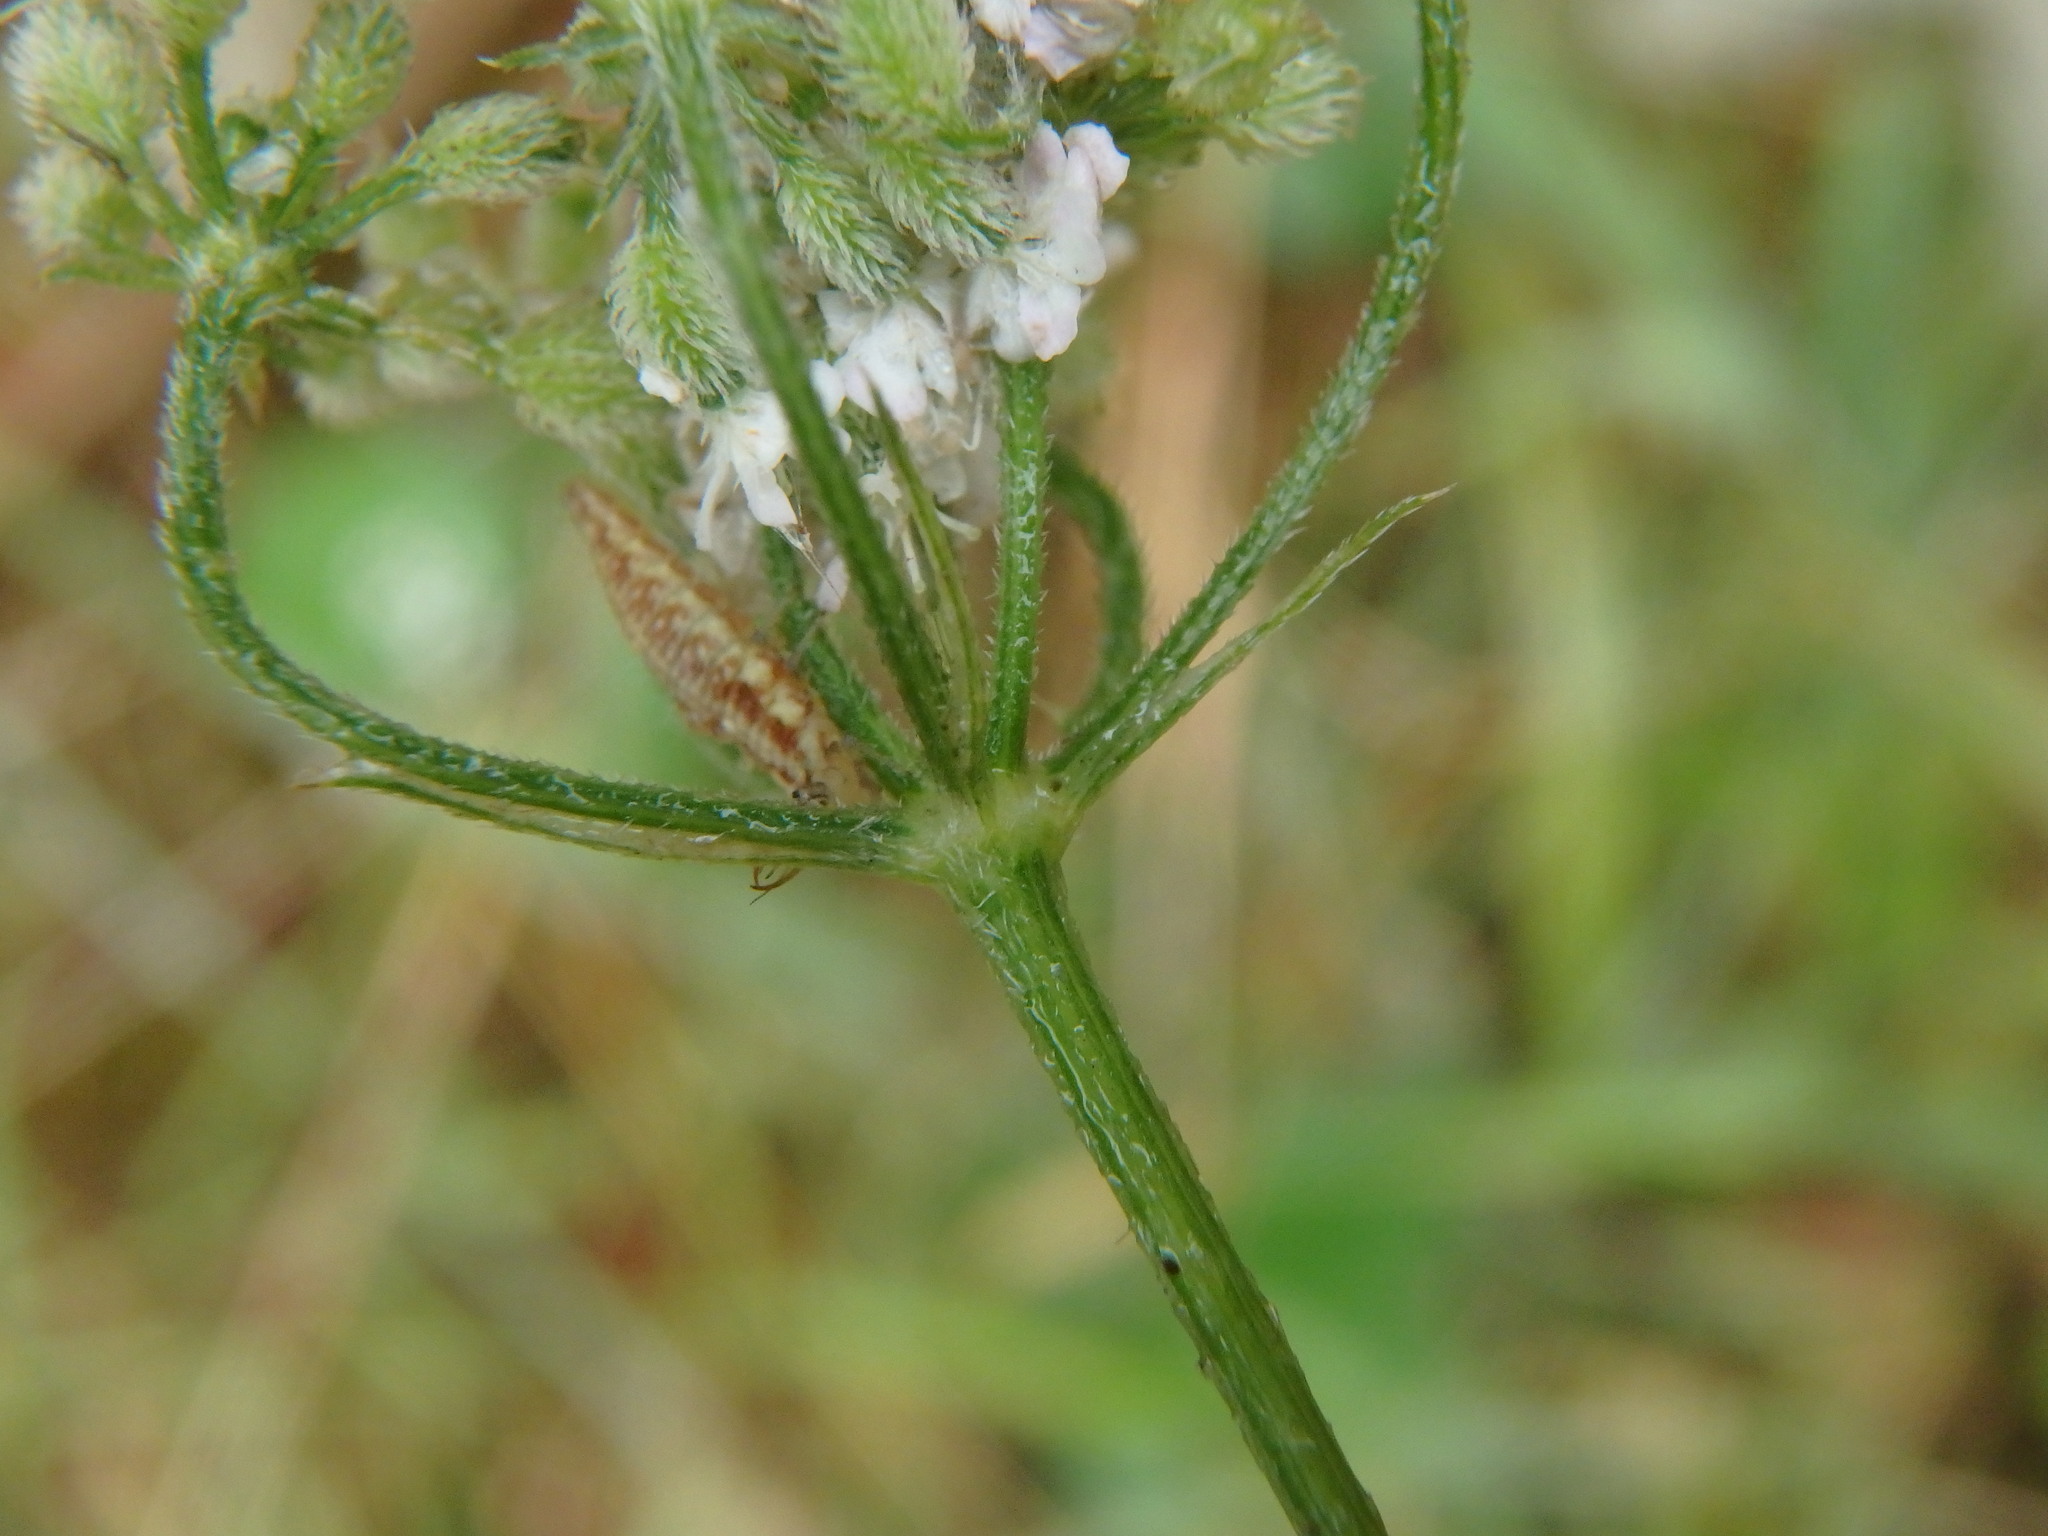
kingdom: Plantae
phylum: Tracheophyta
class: Magnoliopsida
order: Apiales
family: Apiaceae
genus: Torilis
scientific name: Torilis japonica
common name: Upright hedge-parsley
